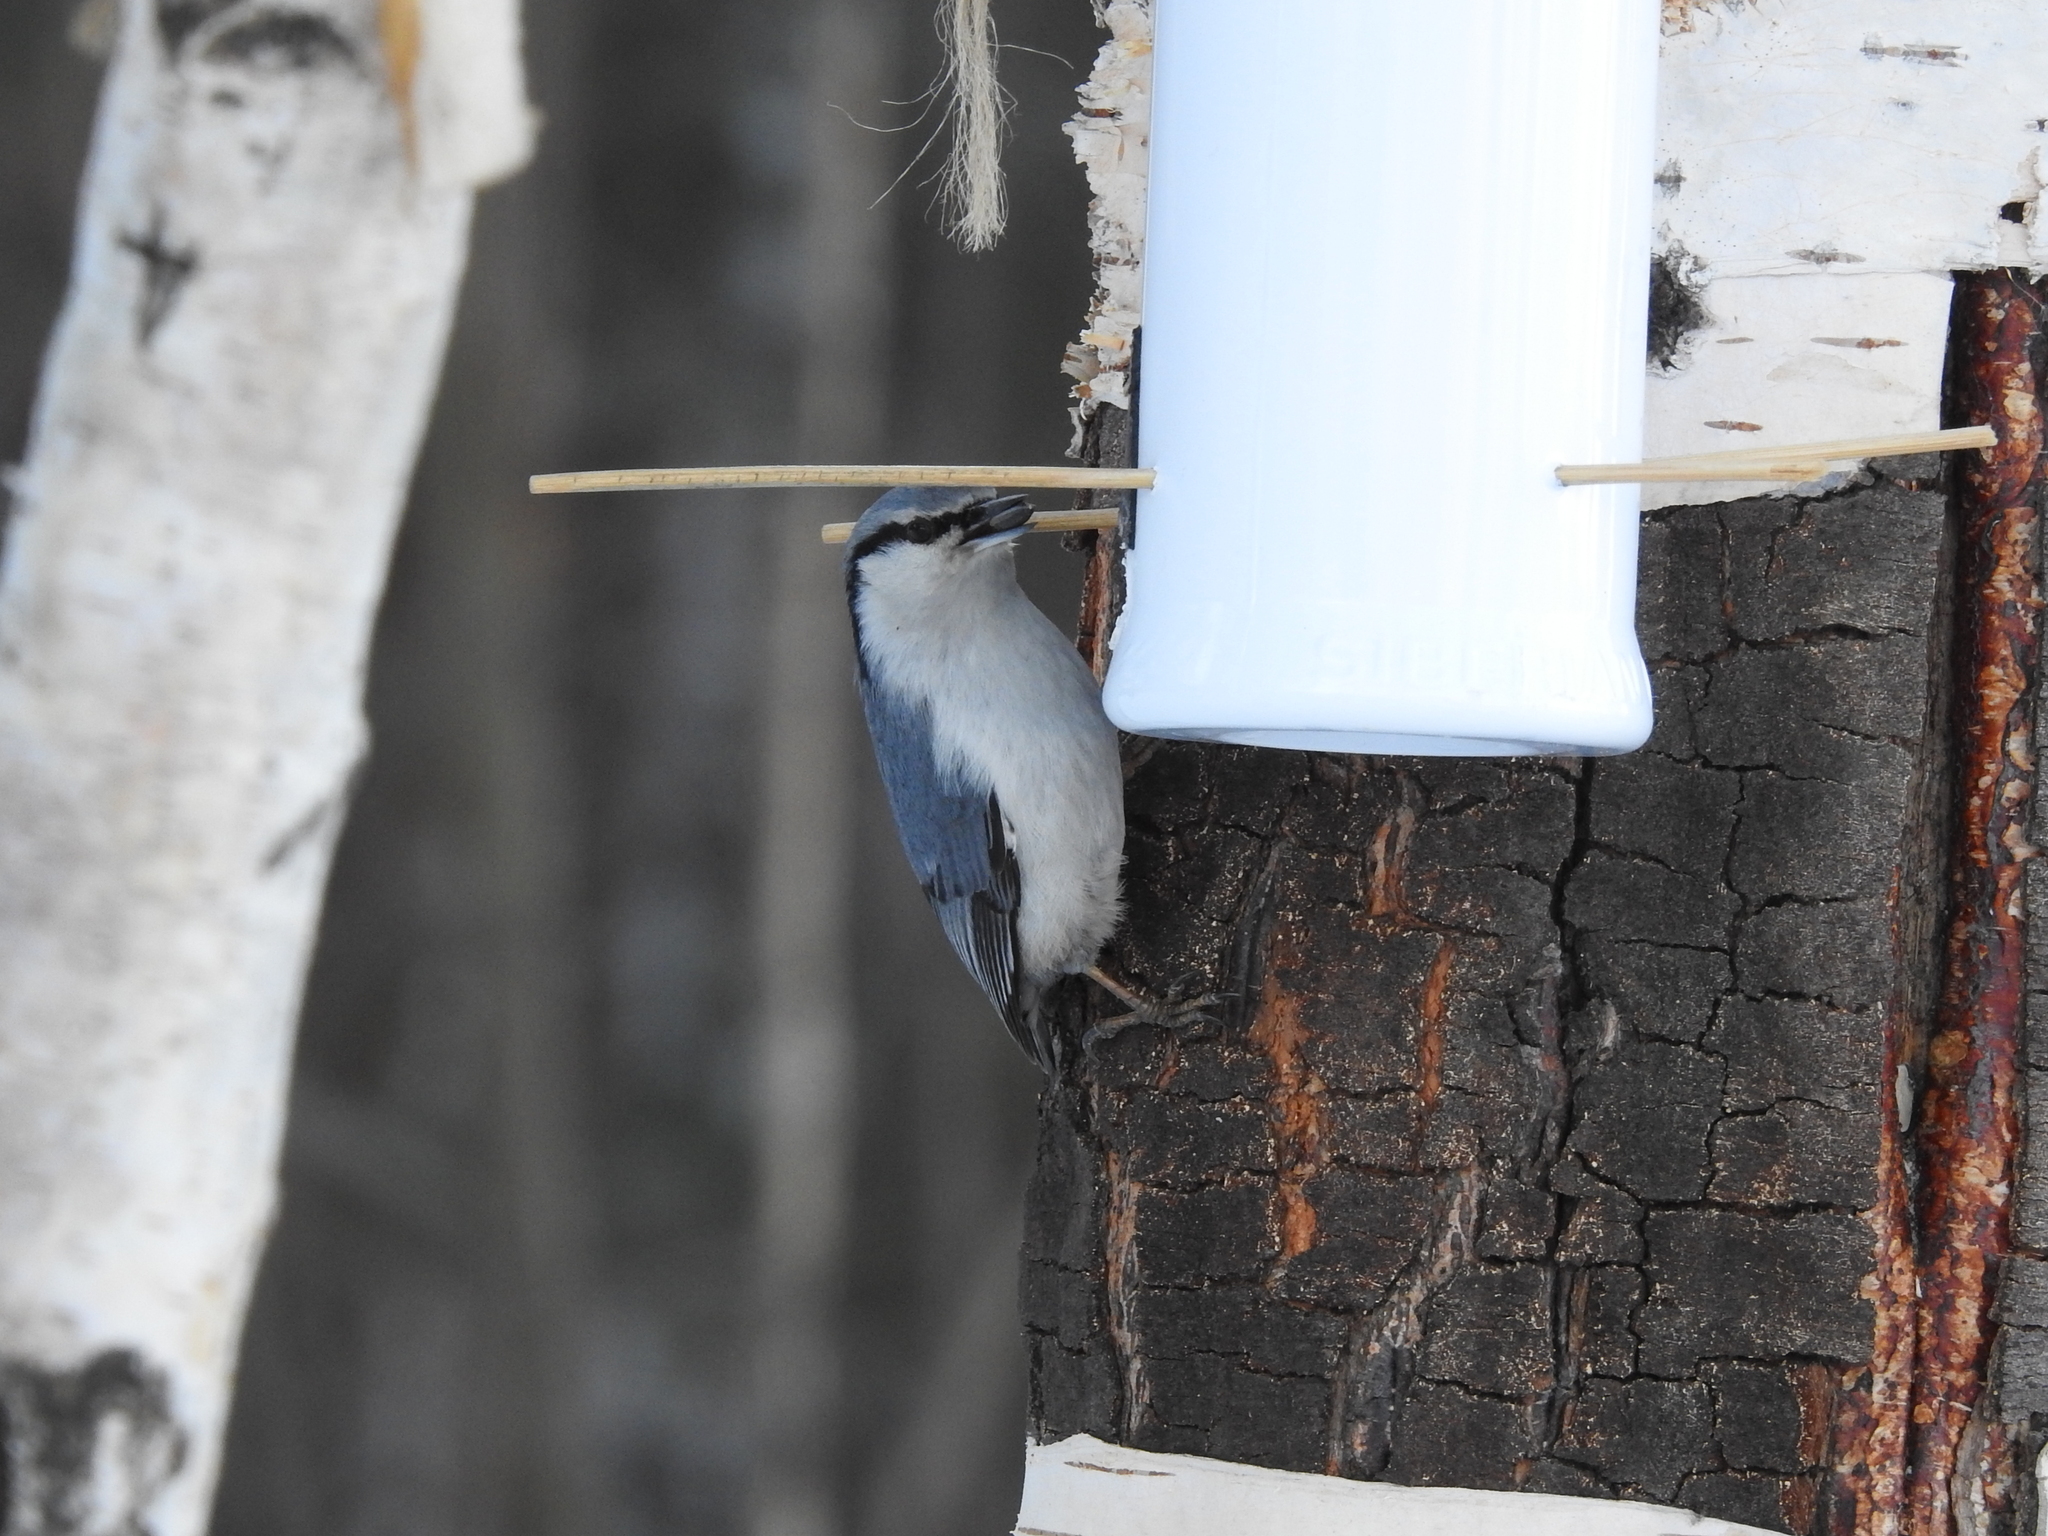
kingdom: Animalia
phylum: Chordata
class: Aves
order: Passeriformes
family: Sittidae
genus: Sitta
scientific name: Sitta europaea
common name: Eurasian nuthatch
